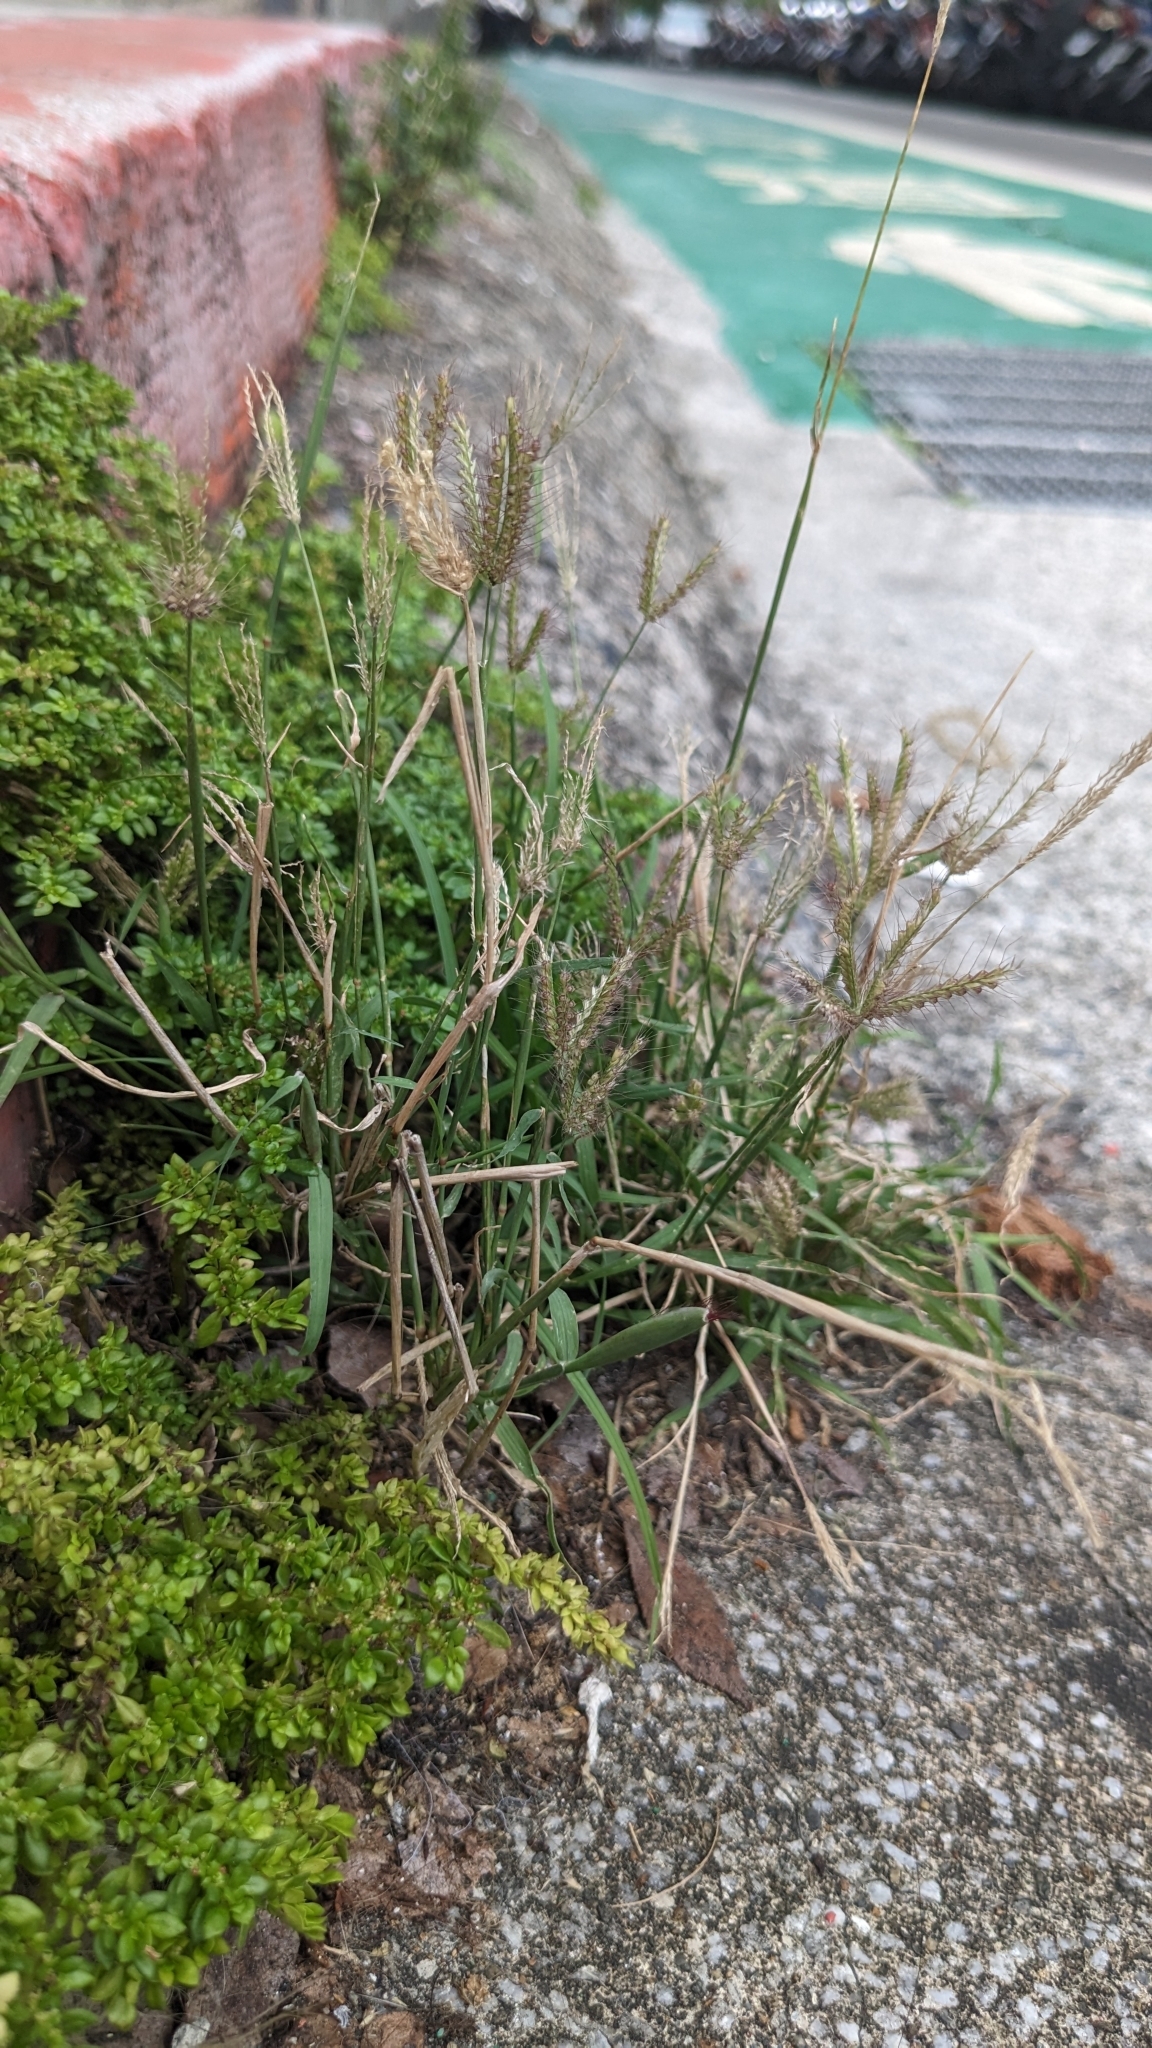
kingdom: Plantae
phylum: Tracheophyta
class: Liliopsida
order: Poales
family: Poaceae
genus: Chloris
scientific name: Chloris barbata
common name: Swollen fingergrass
